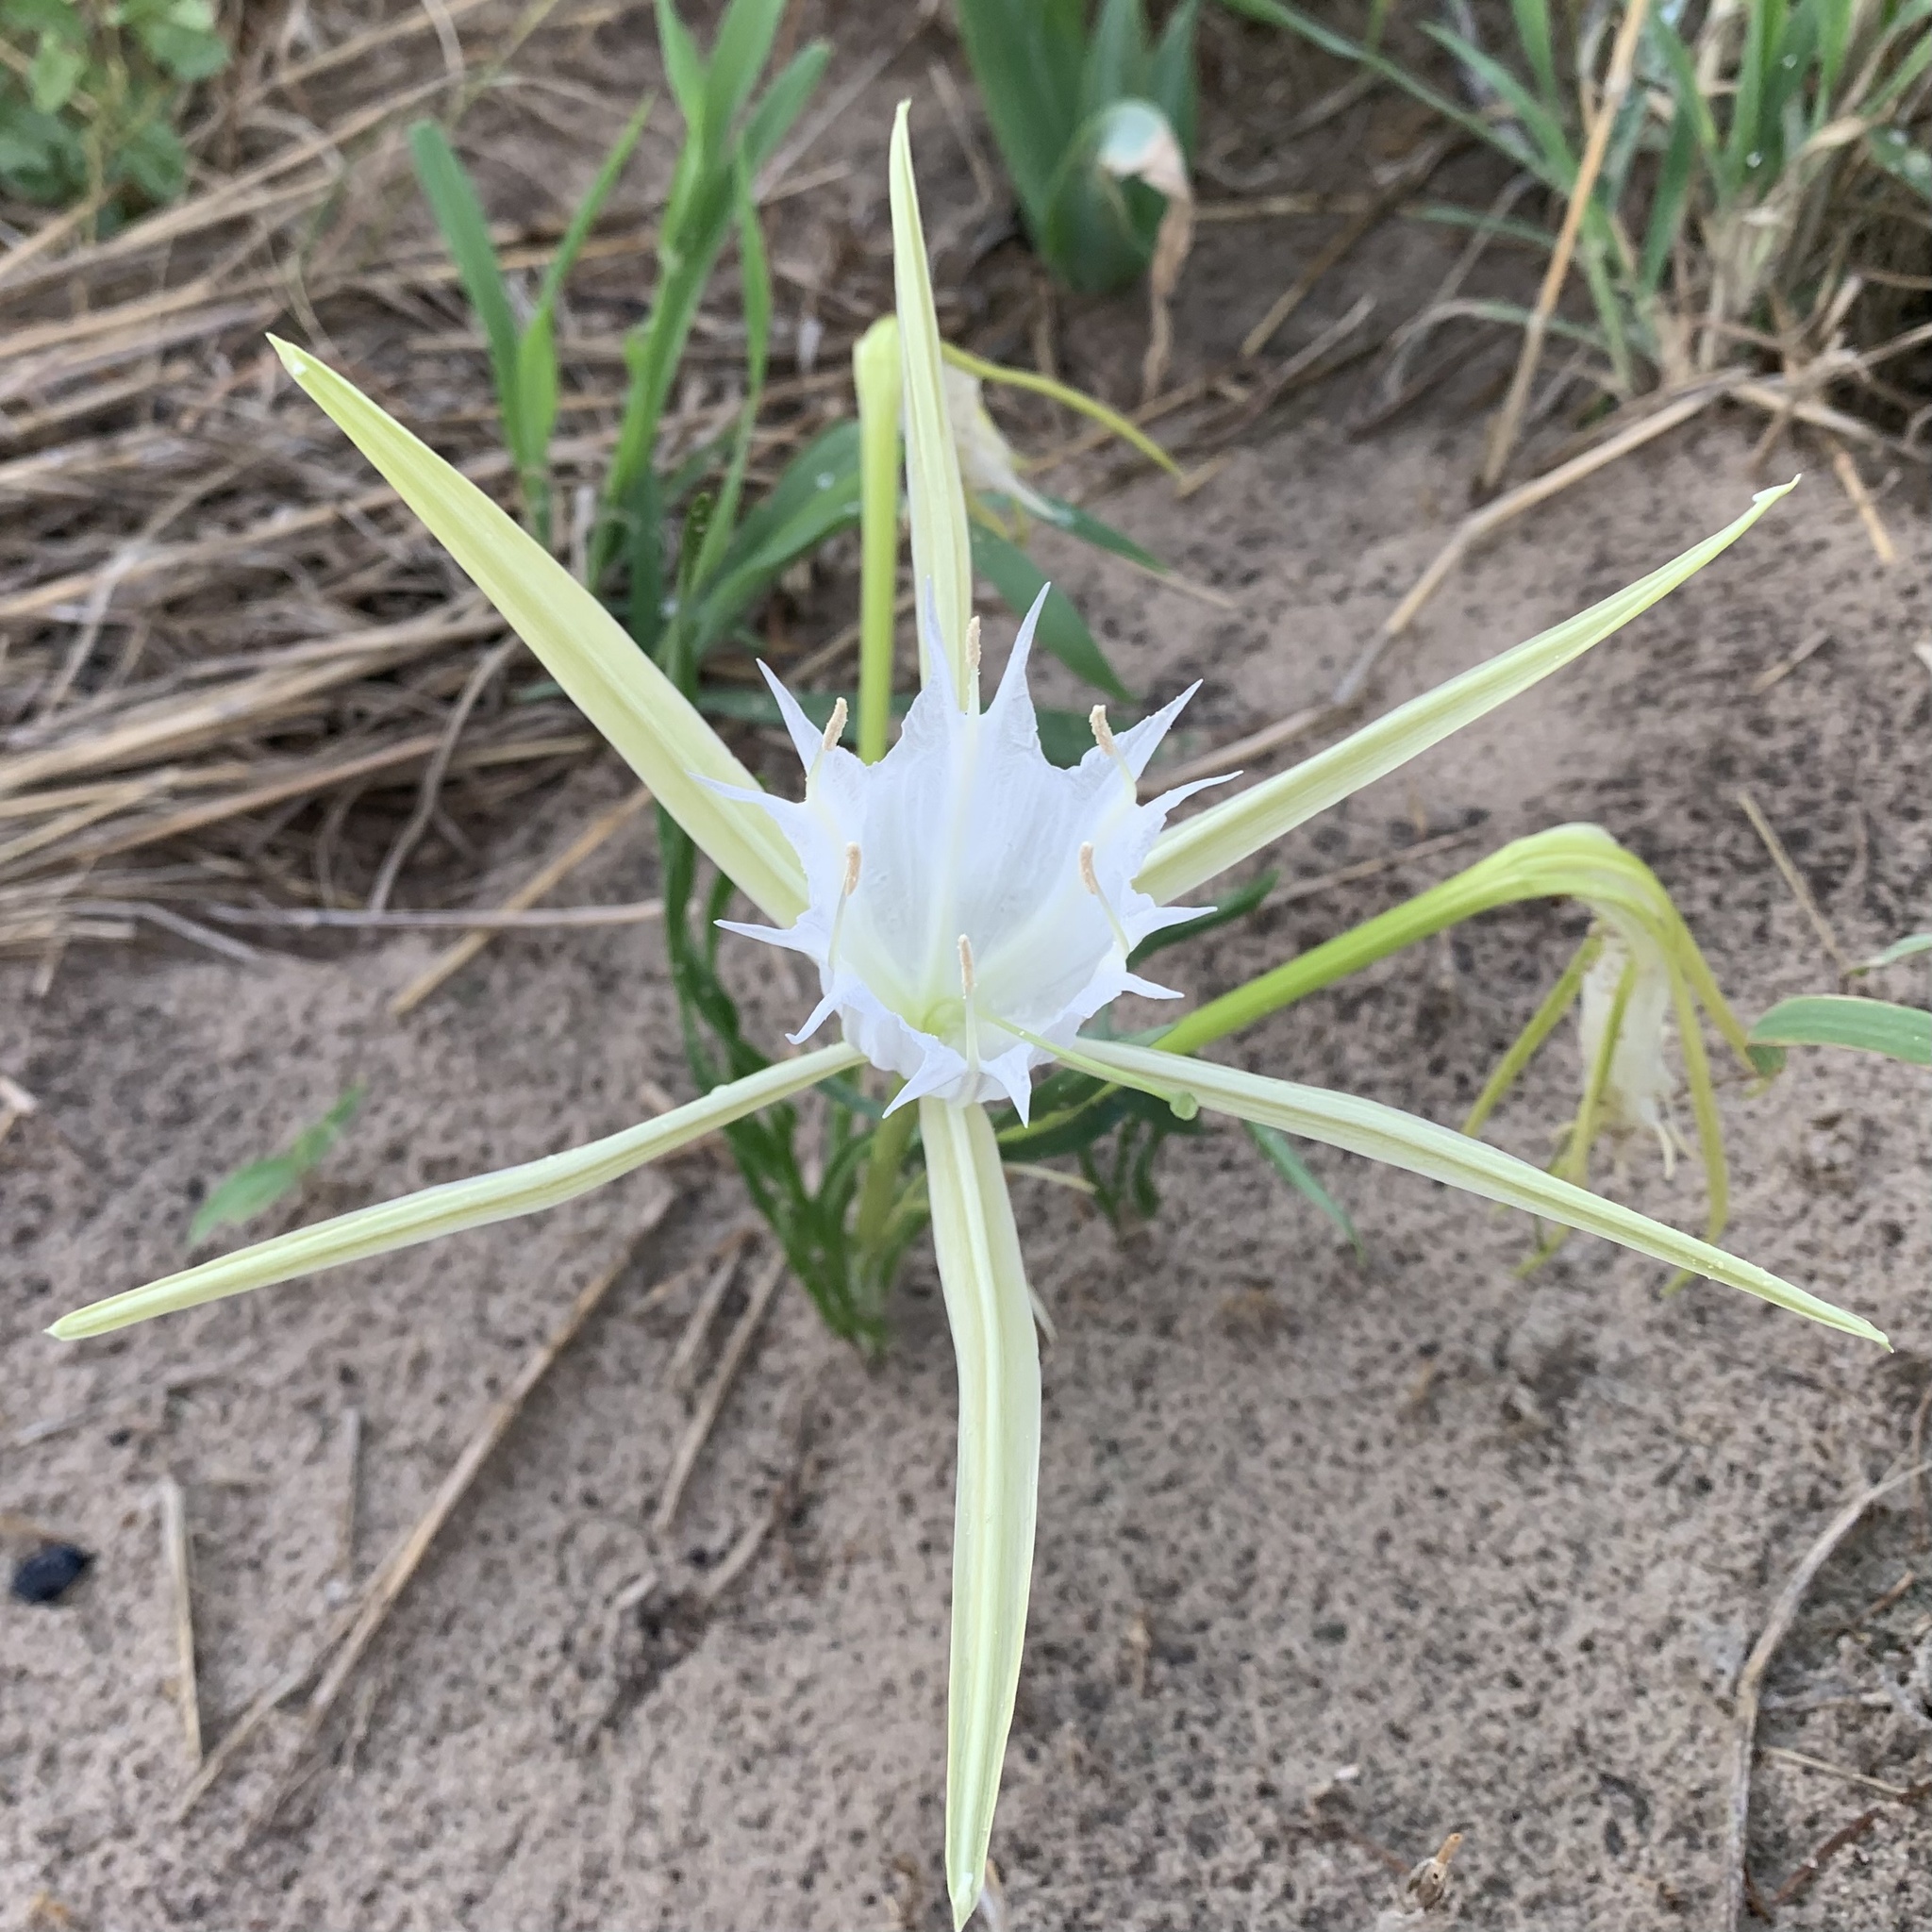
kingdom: Plantae
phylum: Tracheophyta
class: Liliopsida
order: Asparagales
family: Amaryllidaceae
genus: Pancratium
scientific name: Pancratium tenuifolium
